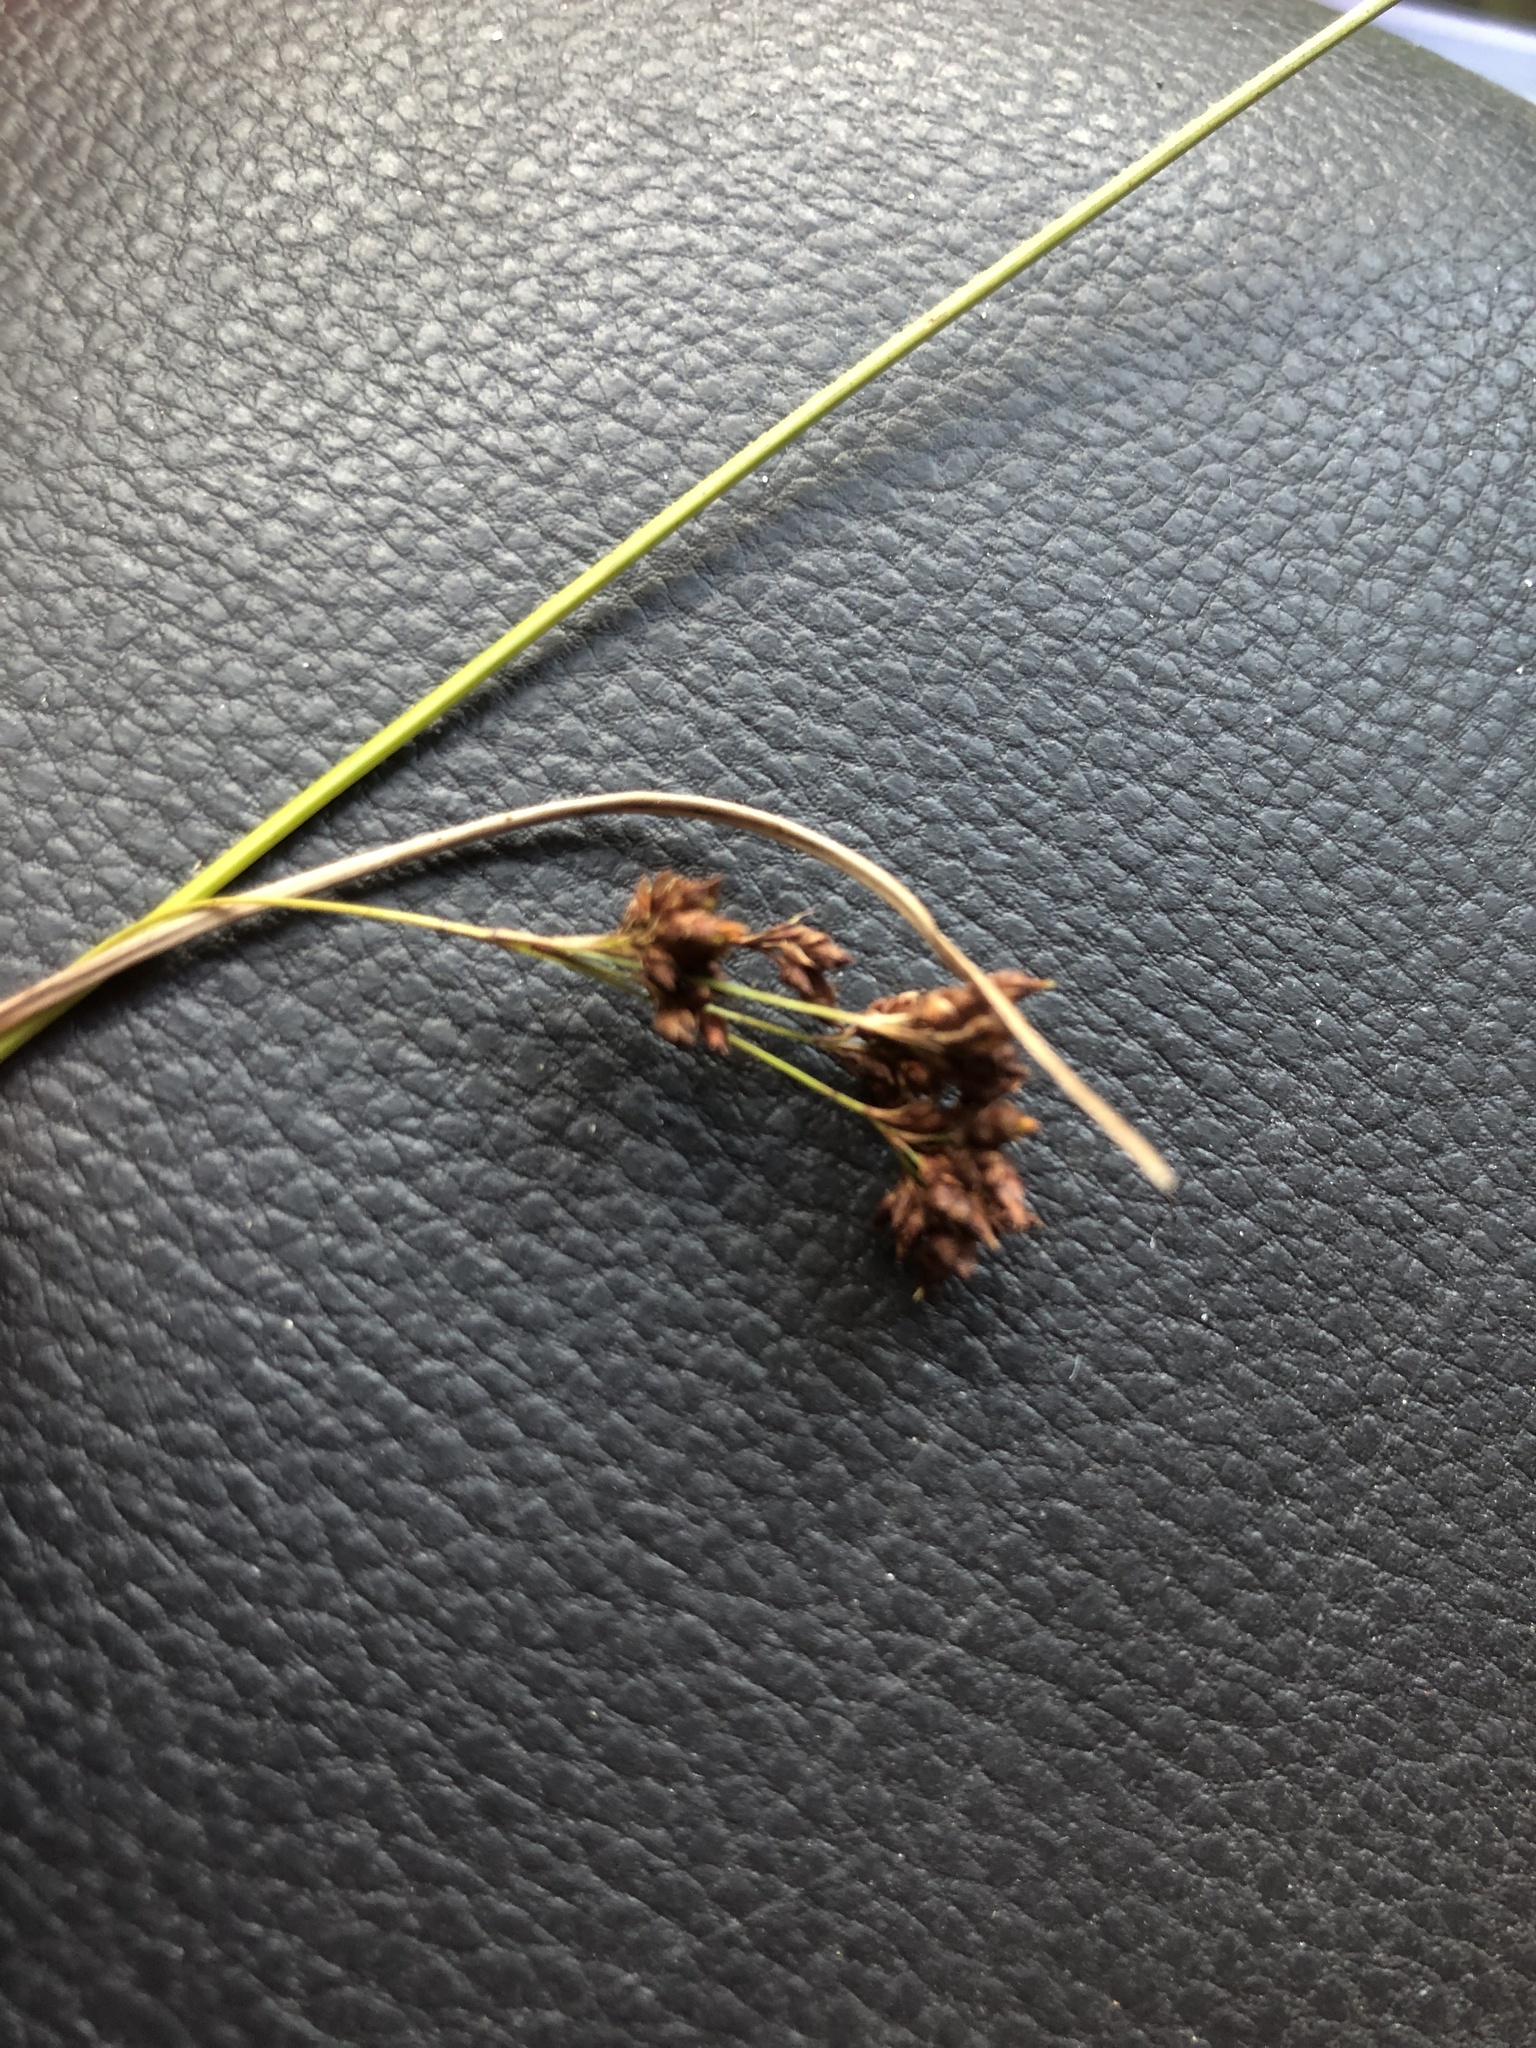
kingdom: Plantae
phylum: Tracheophyta
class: Liliopsida
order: Poales
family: Cyperaceae
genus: Rhynchospora
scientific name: Rhynchospora elliottii
